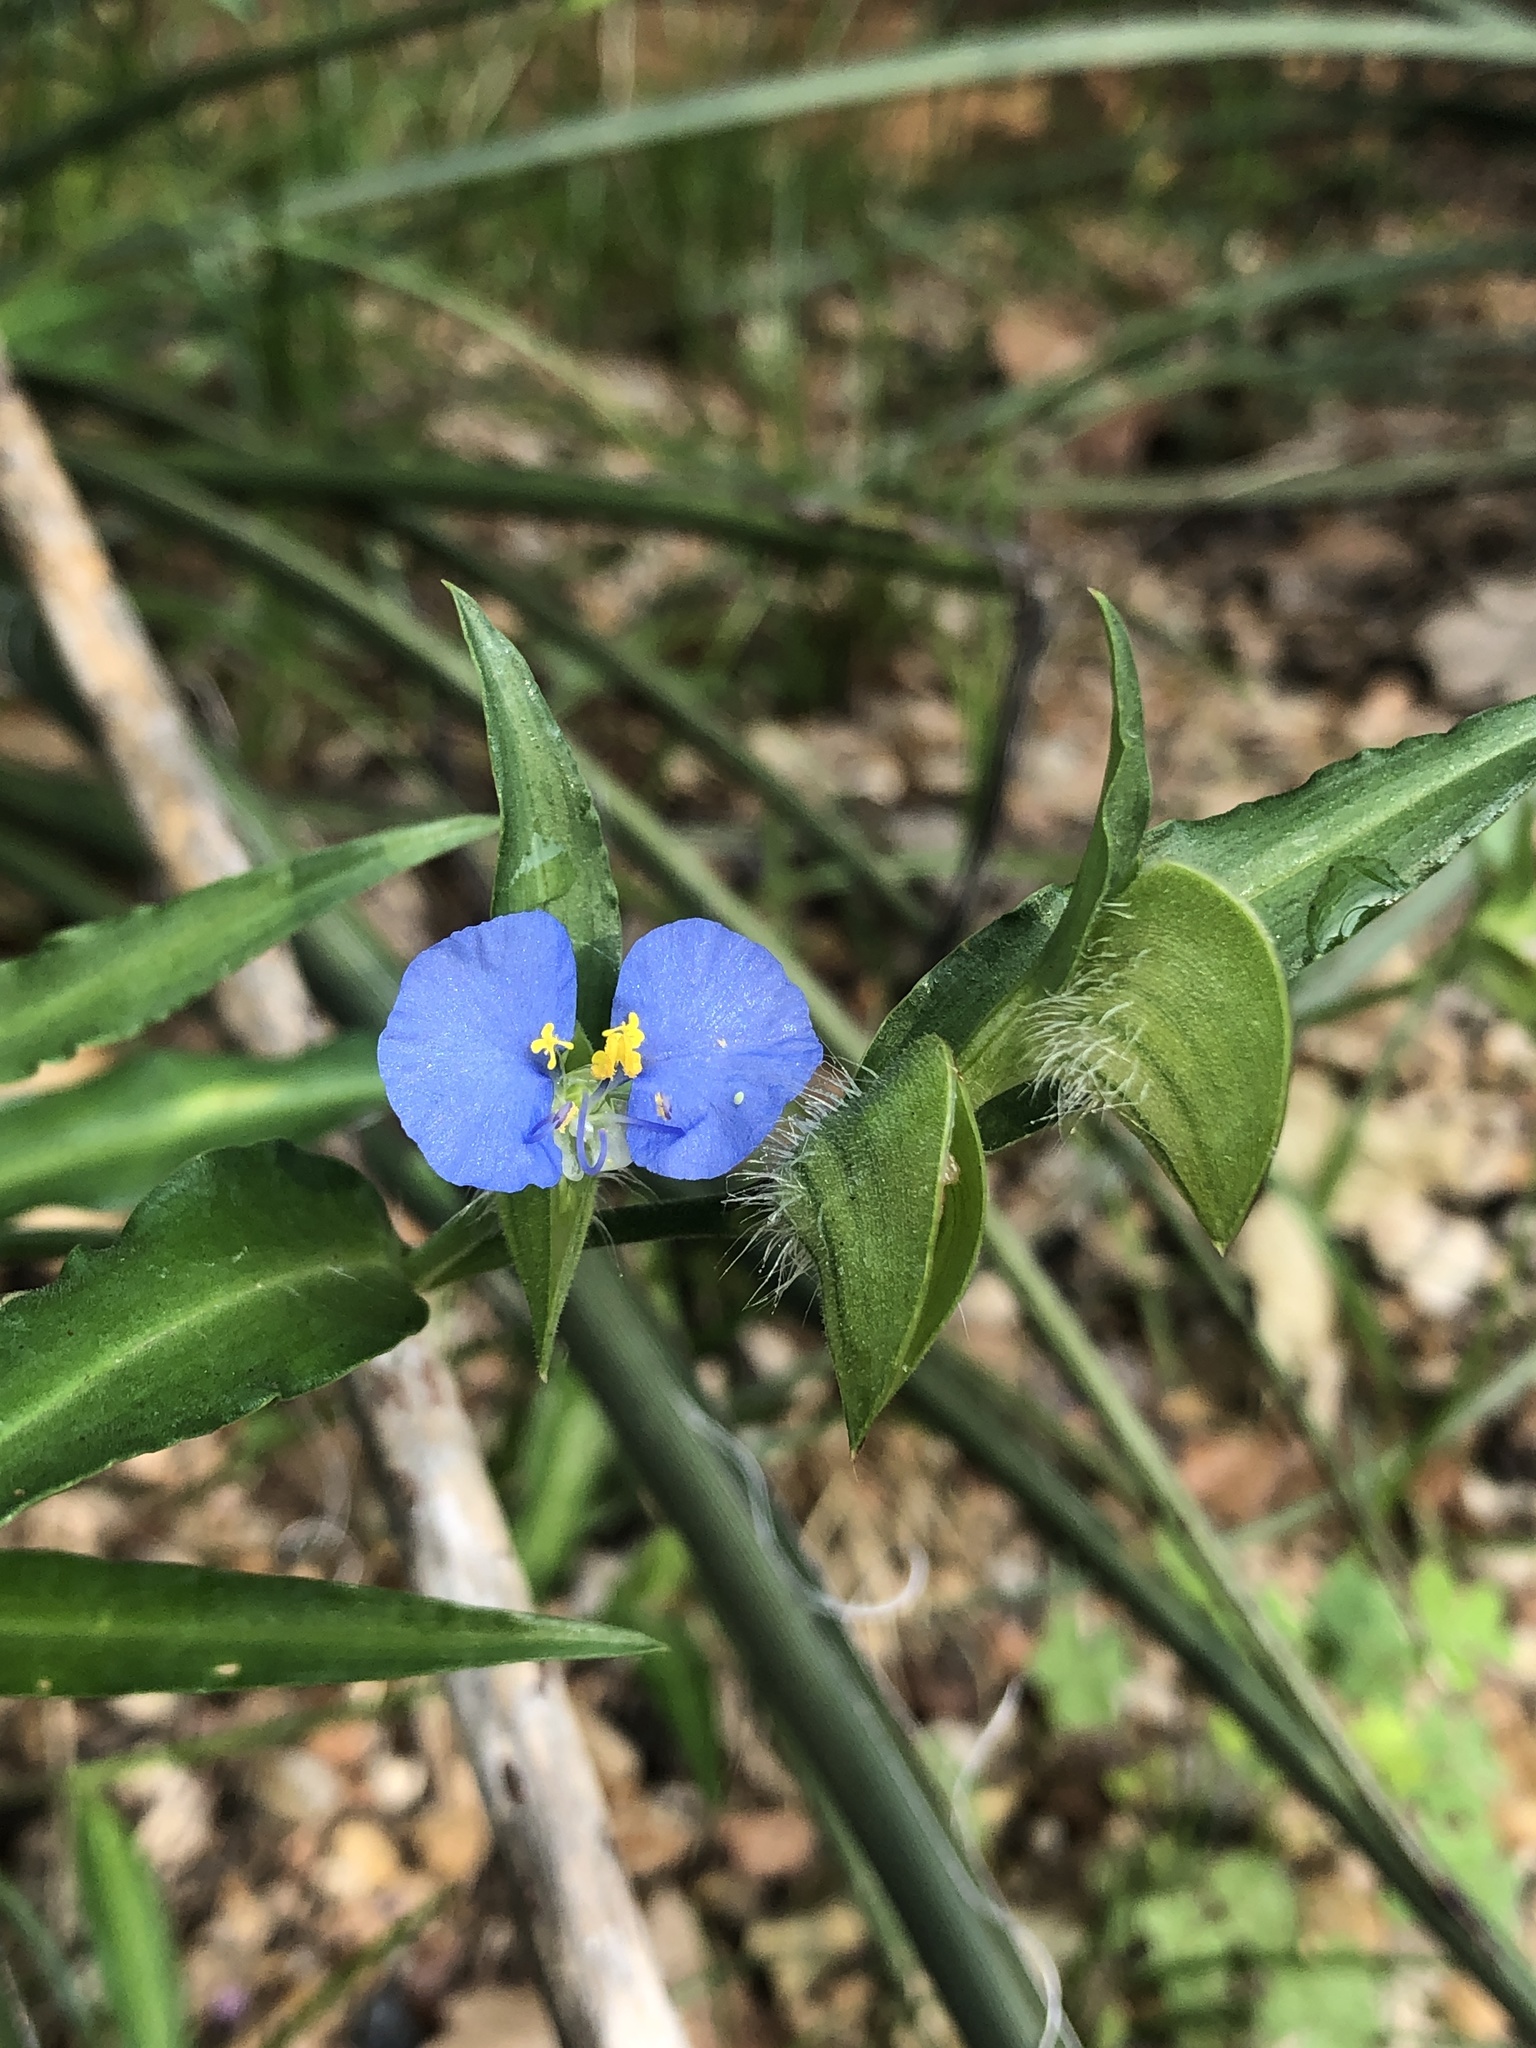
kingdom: Plantae
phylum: Tracheophyta
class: Liliopsida
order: Commelinales
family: Commelinaceae
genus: Commelina
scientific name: Commelina erecta
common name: Blousel blommetjie
